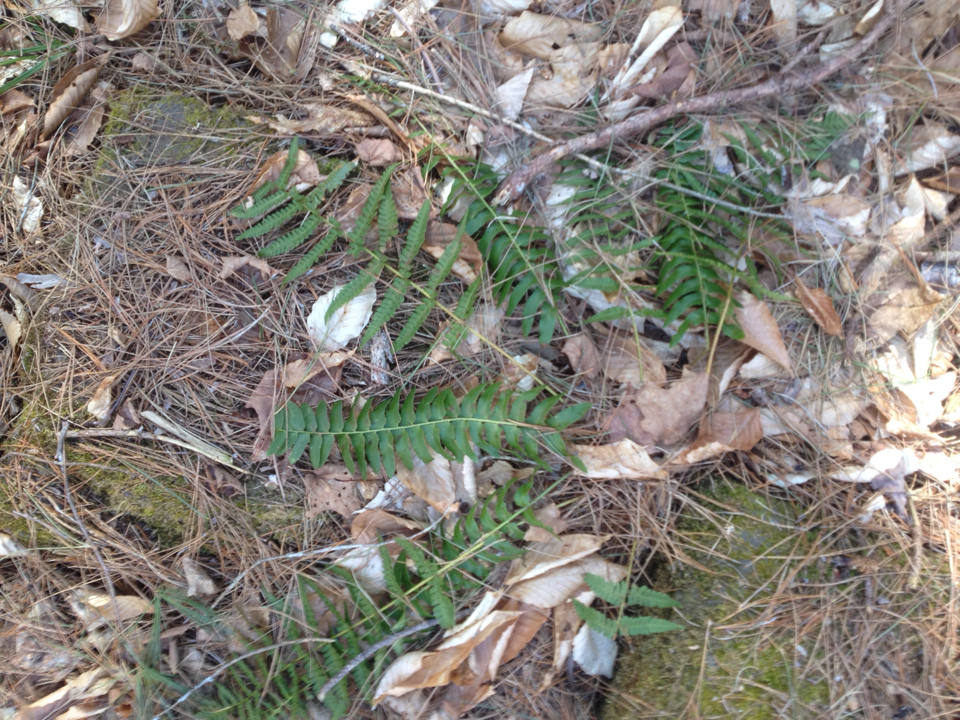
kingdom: Plantae
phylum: Tracheophyta
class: Polypodiopsida
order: Polypodiales
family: Dryopteridaceae
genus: Polystichum
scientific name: Polystichum acrostichoides
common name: Christmas fern
